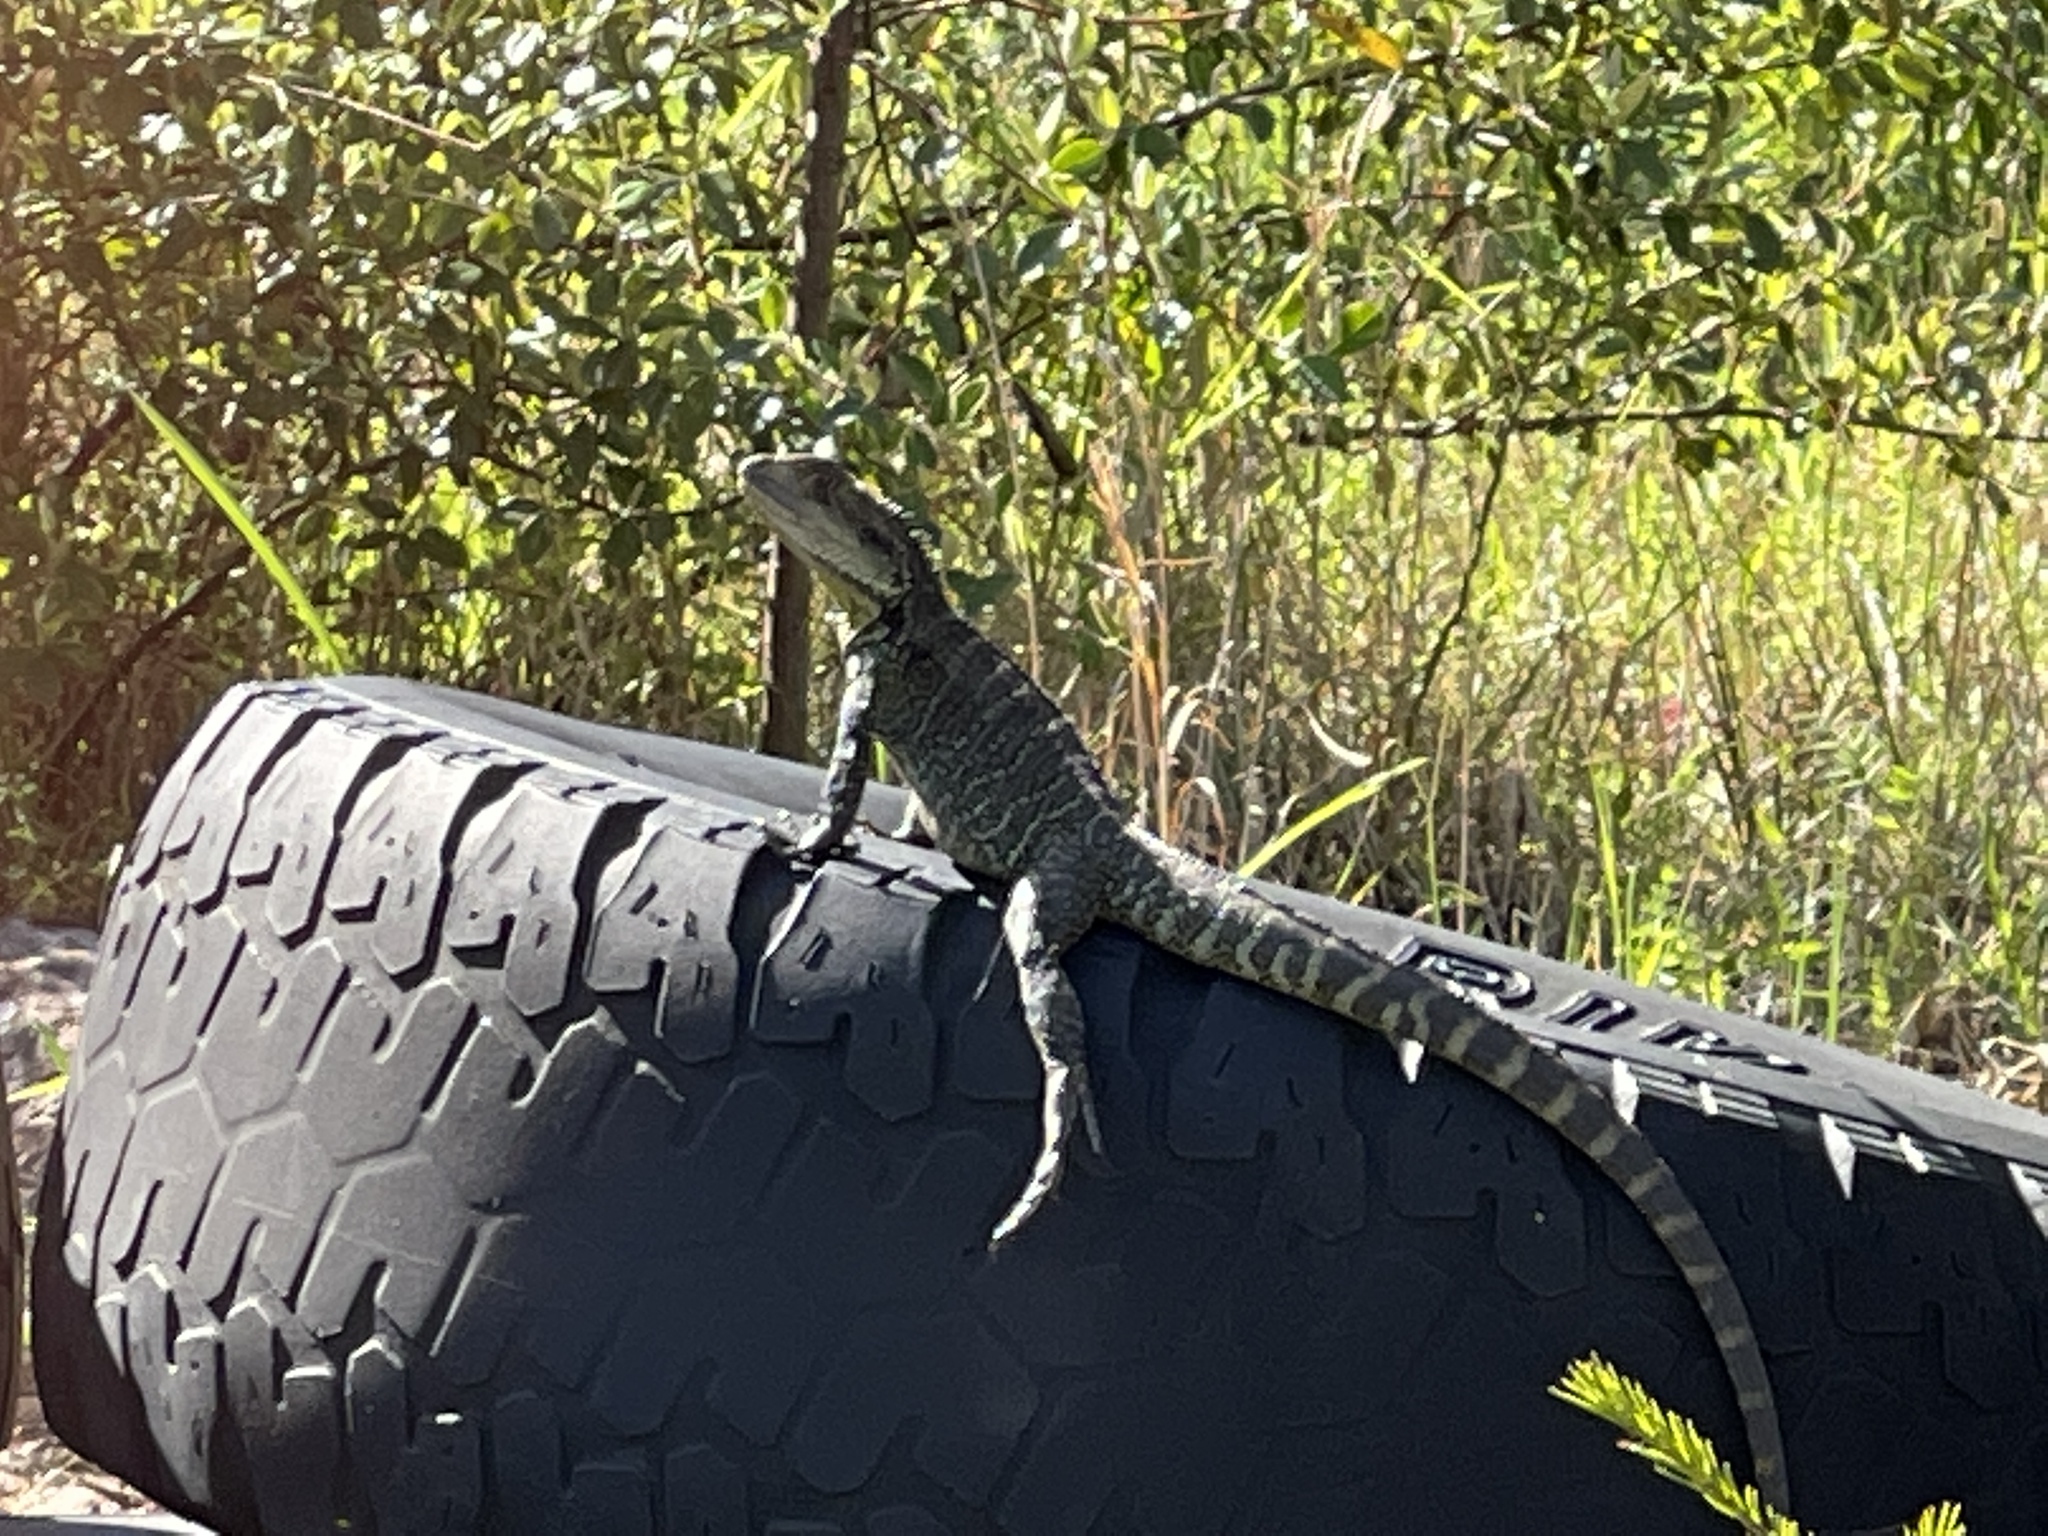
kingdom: Animalia
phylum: Chordata
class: Squamata
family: Agamidae
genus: Intellagama
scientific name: Intellagama lesueurii
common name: Eastern water dragon
